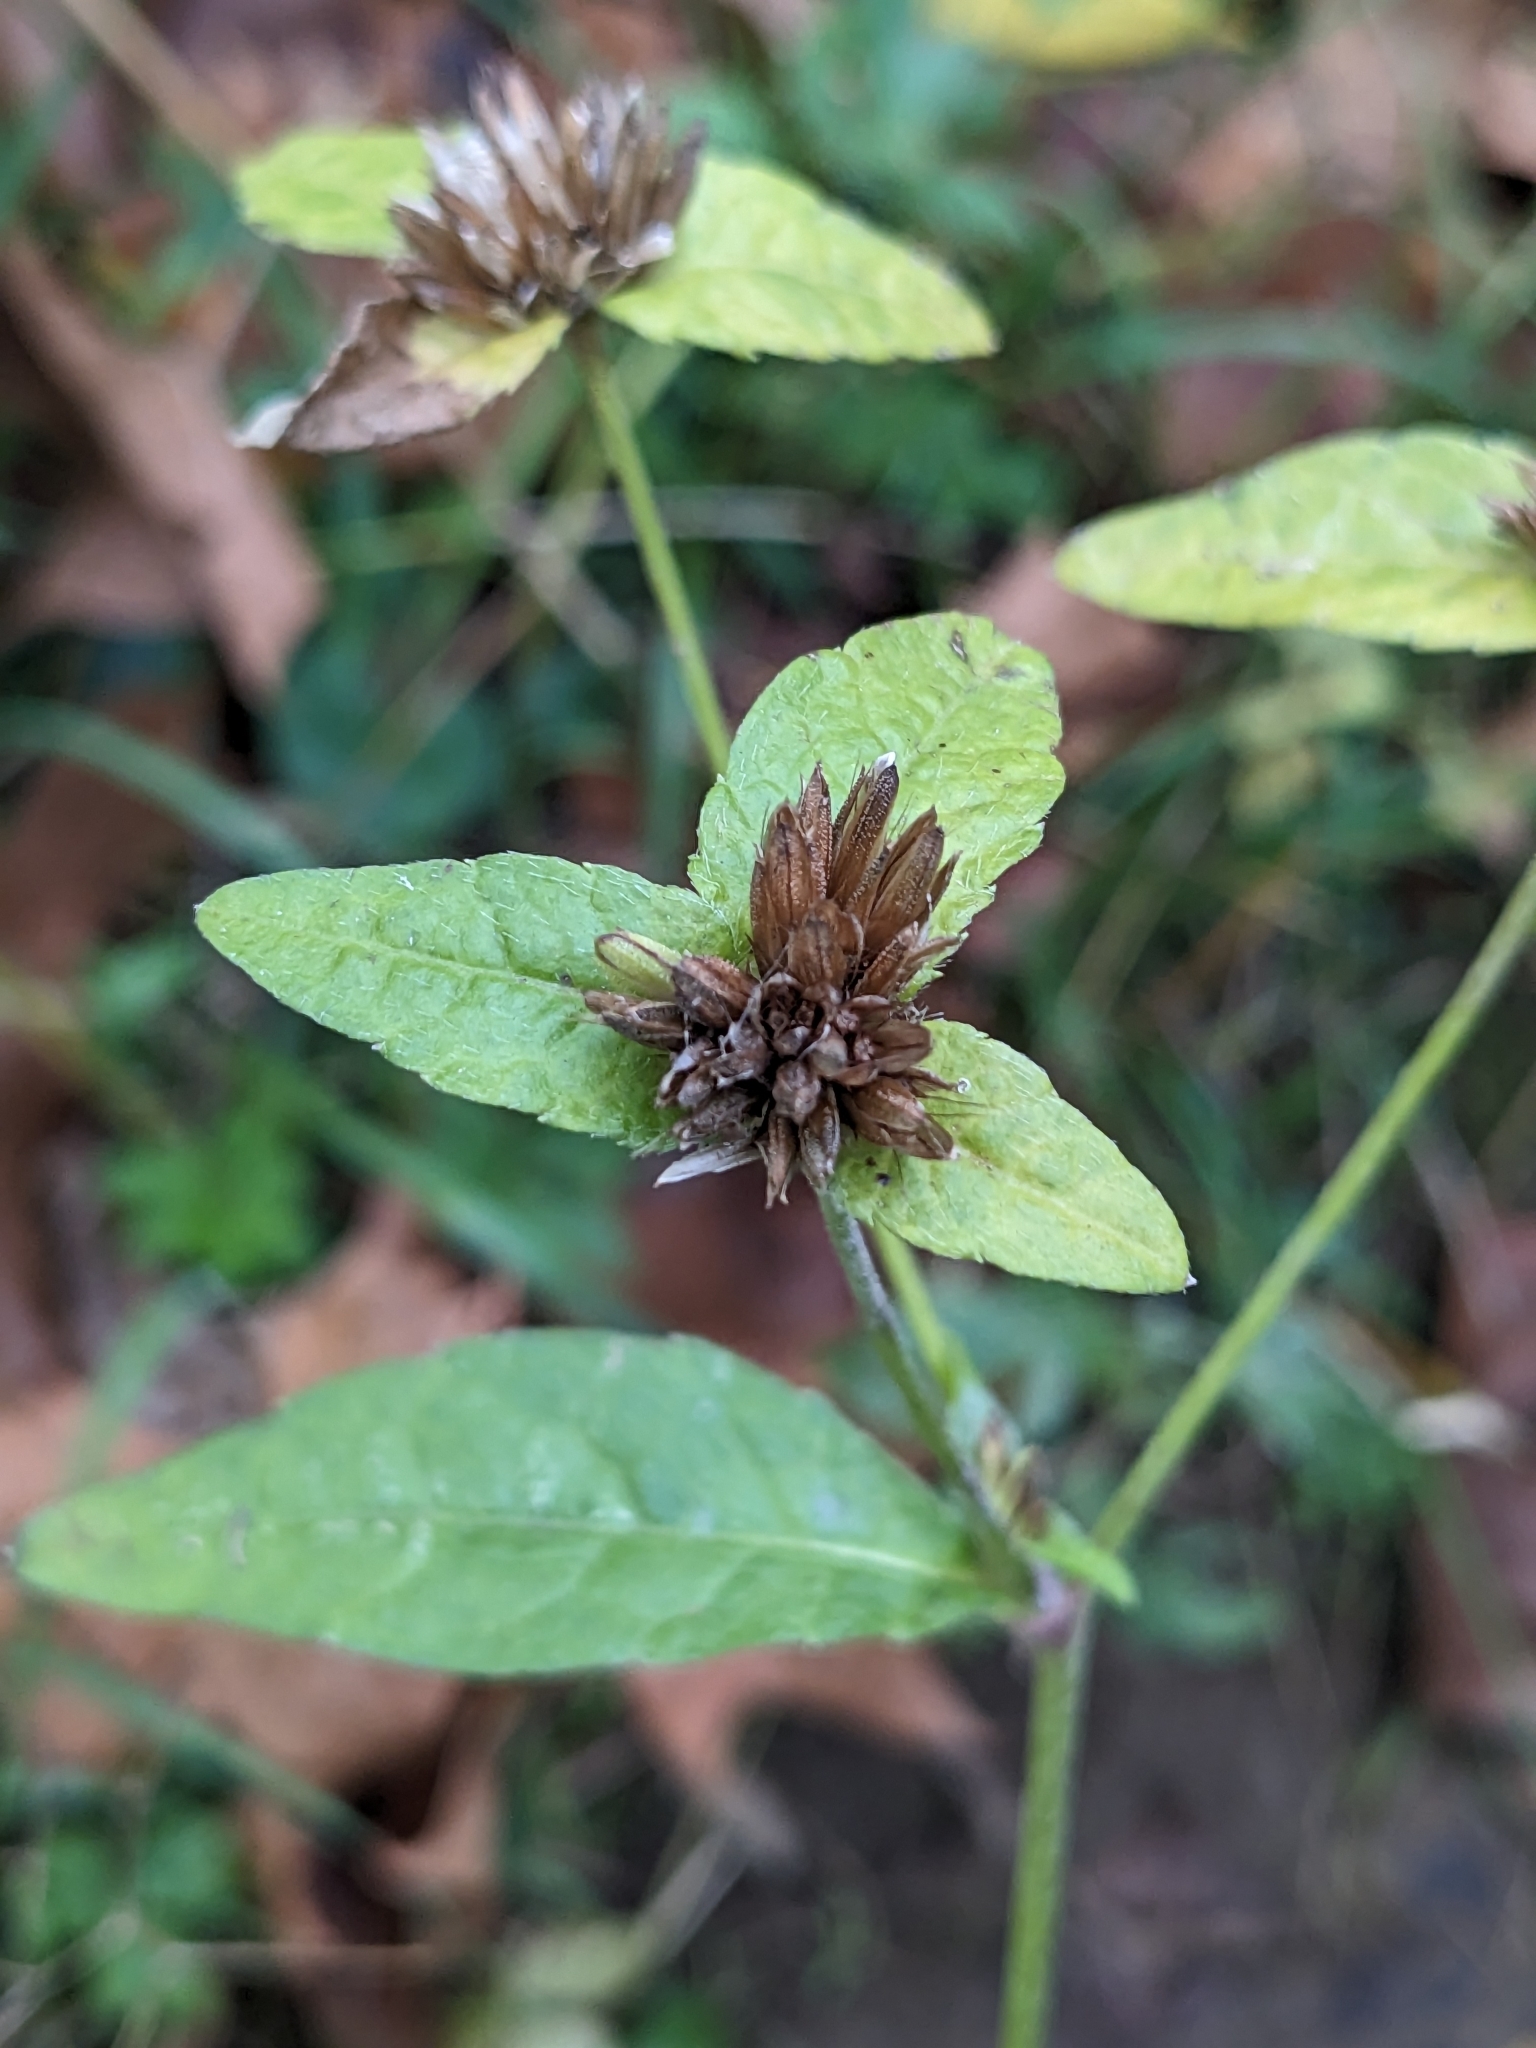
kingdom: Plantae
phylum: Tracheophyta
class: Magnoliopsida
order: Asterales
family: Asteraceae
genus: Elephantopus
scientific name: Elephantopus carolinianus
